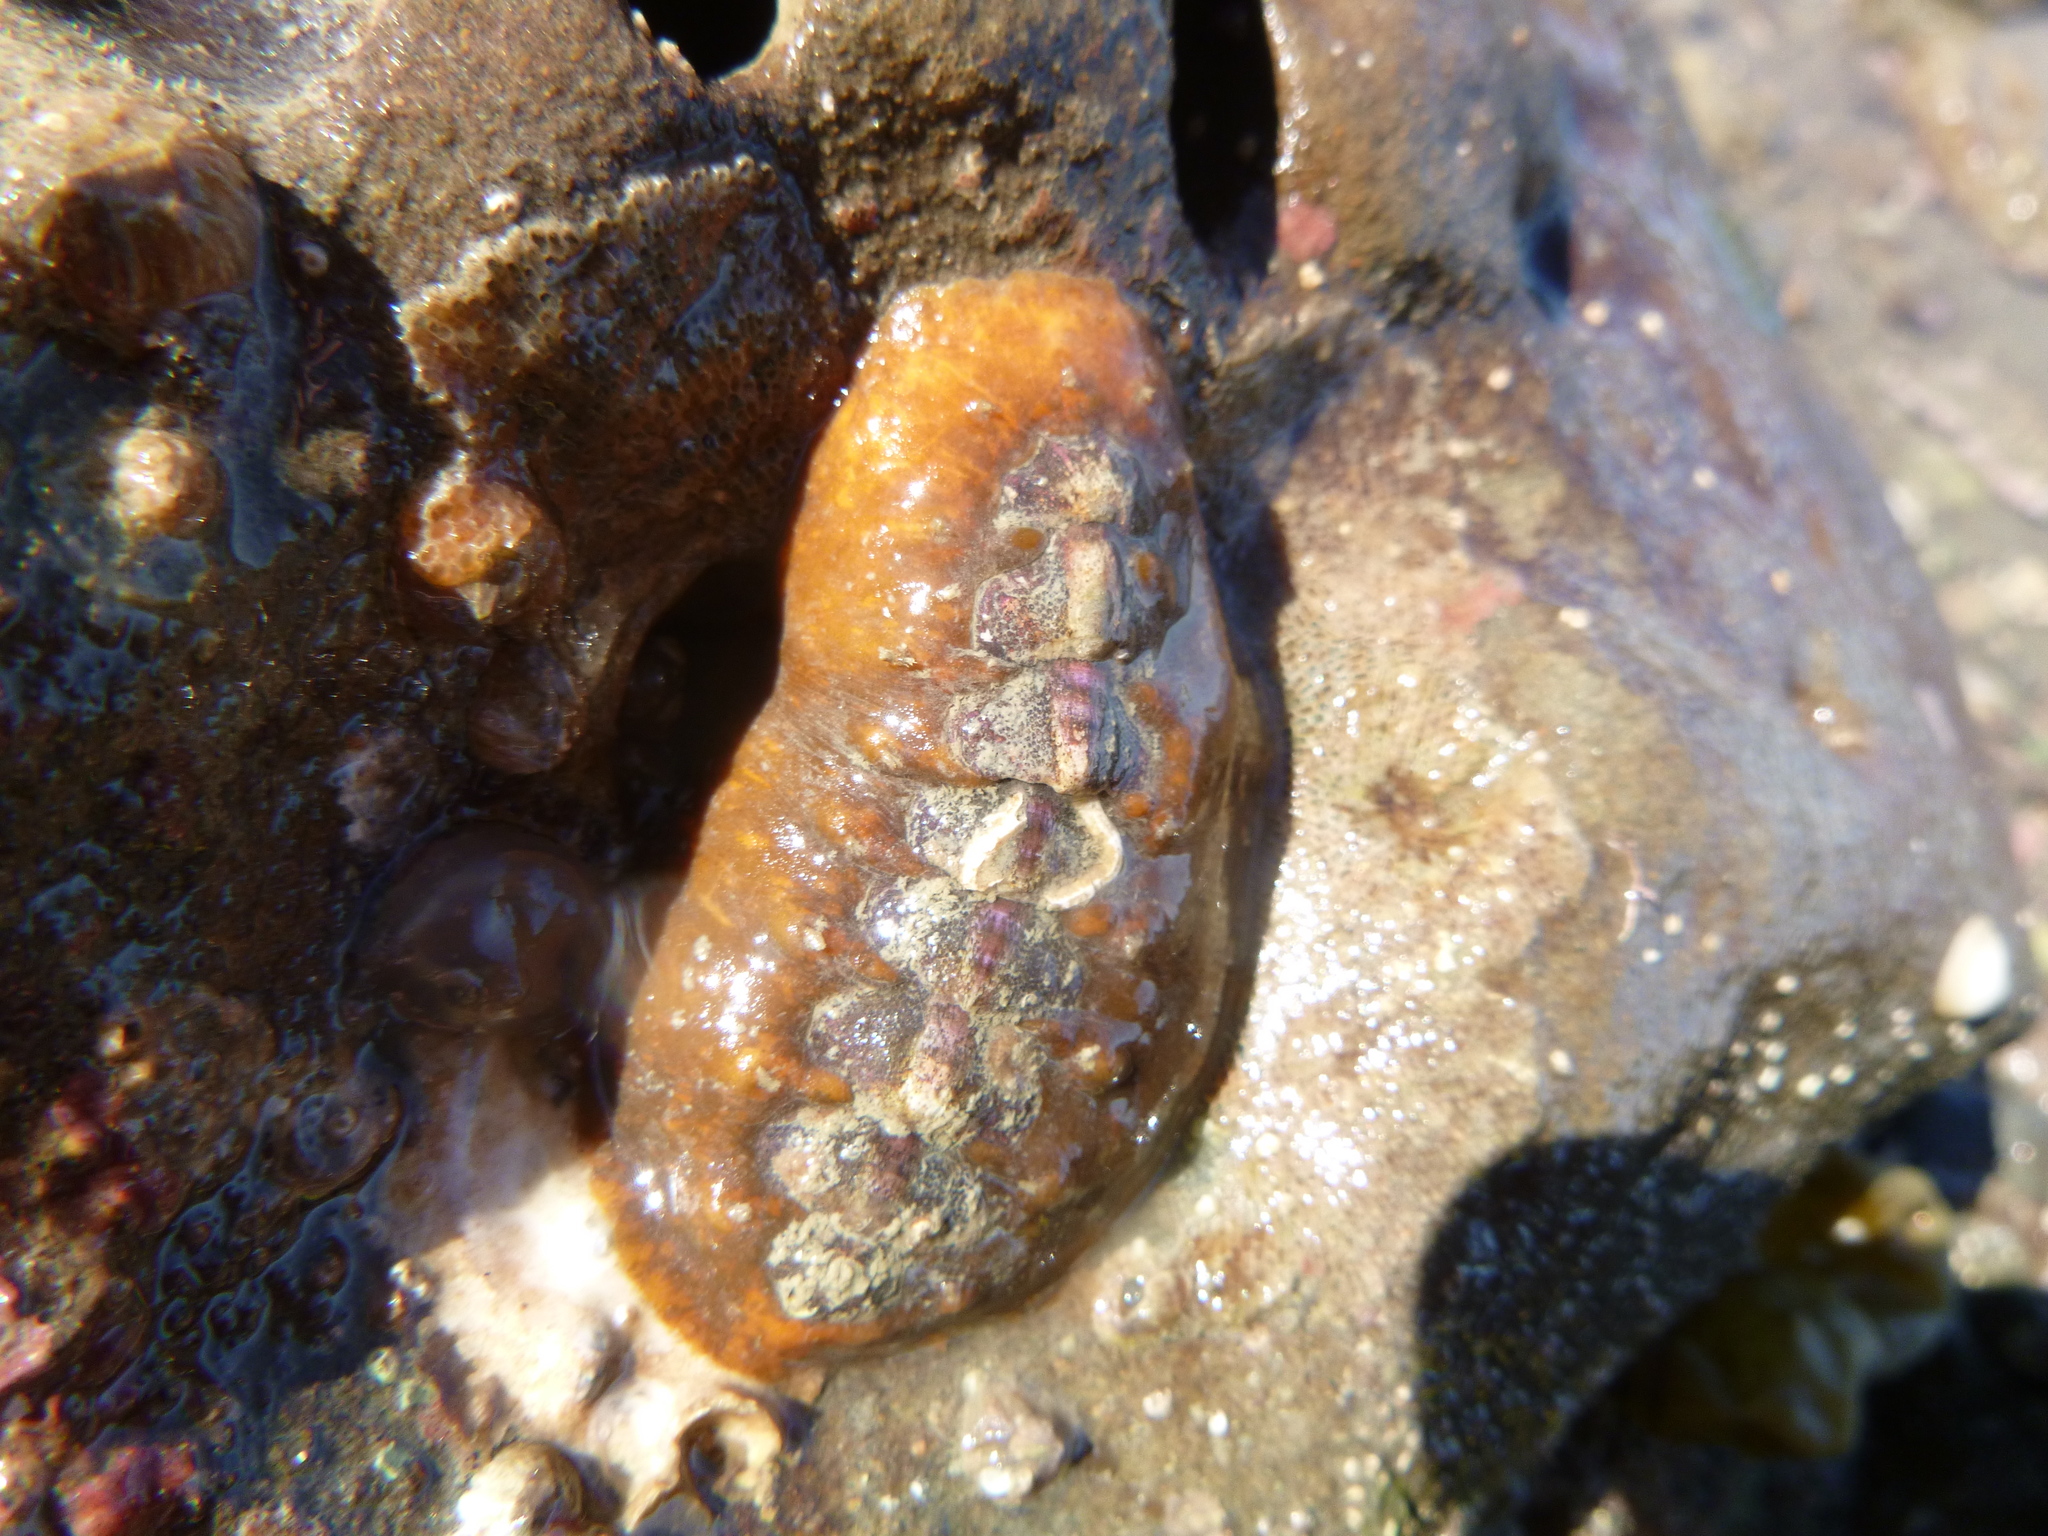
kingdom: Animalia
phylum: Mollusca
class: Polyplacophora
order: Chitonida
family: Acanthochitonidae
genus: Notoplax
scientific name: Notoplax violacea
